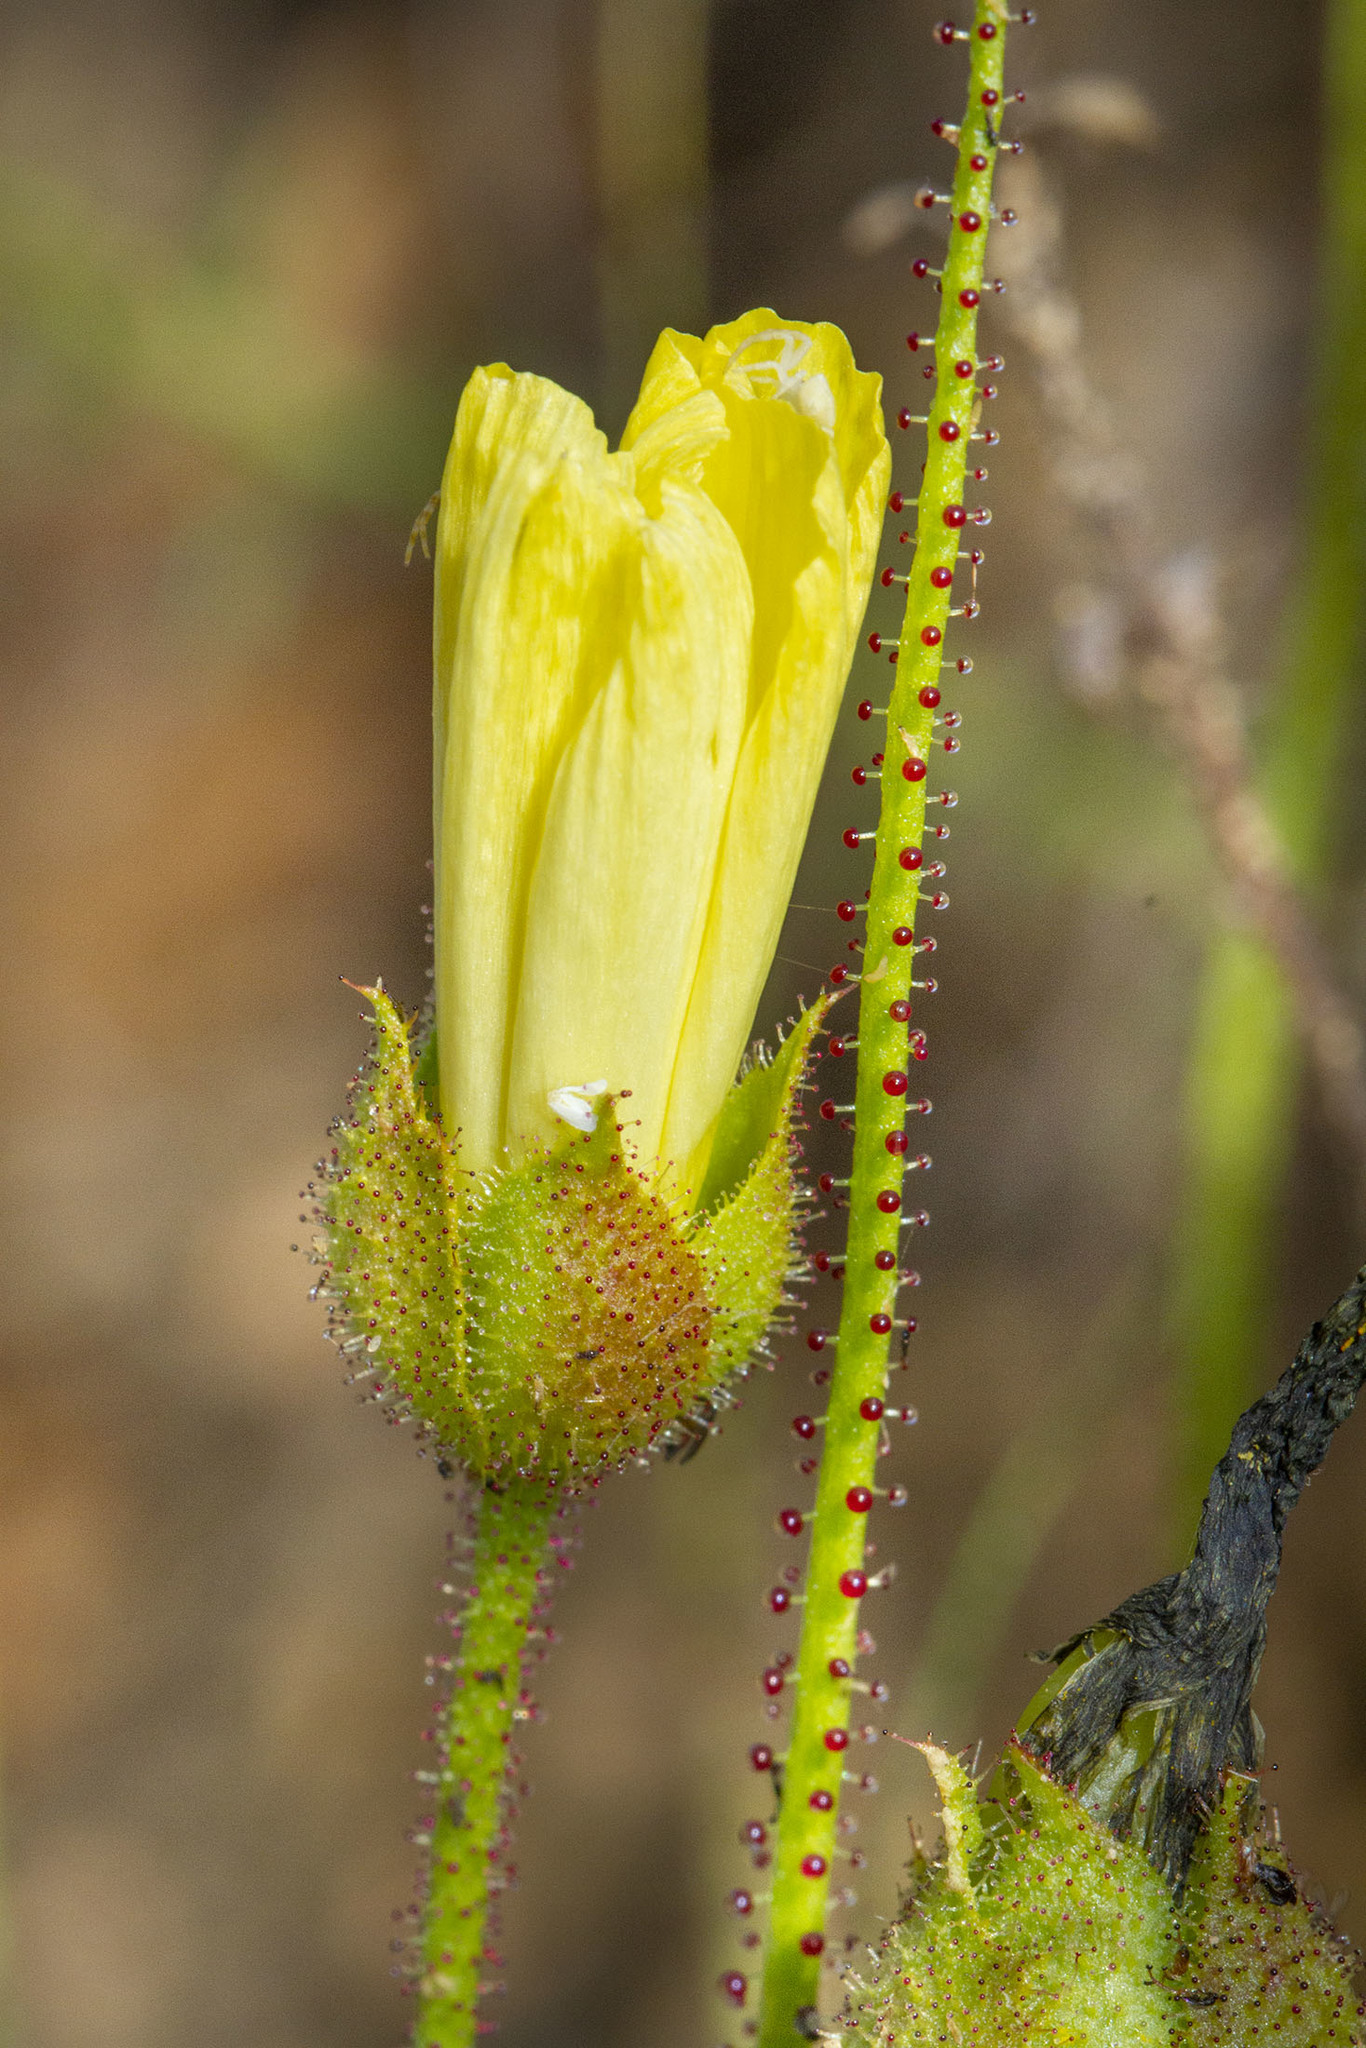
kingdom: Plantae
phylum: Tracheophyta
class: Magnoliopsida
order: Caryophyllales
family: Drosophyllaceae
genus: Drosophyllum
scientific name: Drosophyllum lusitanicum
